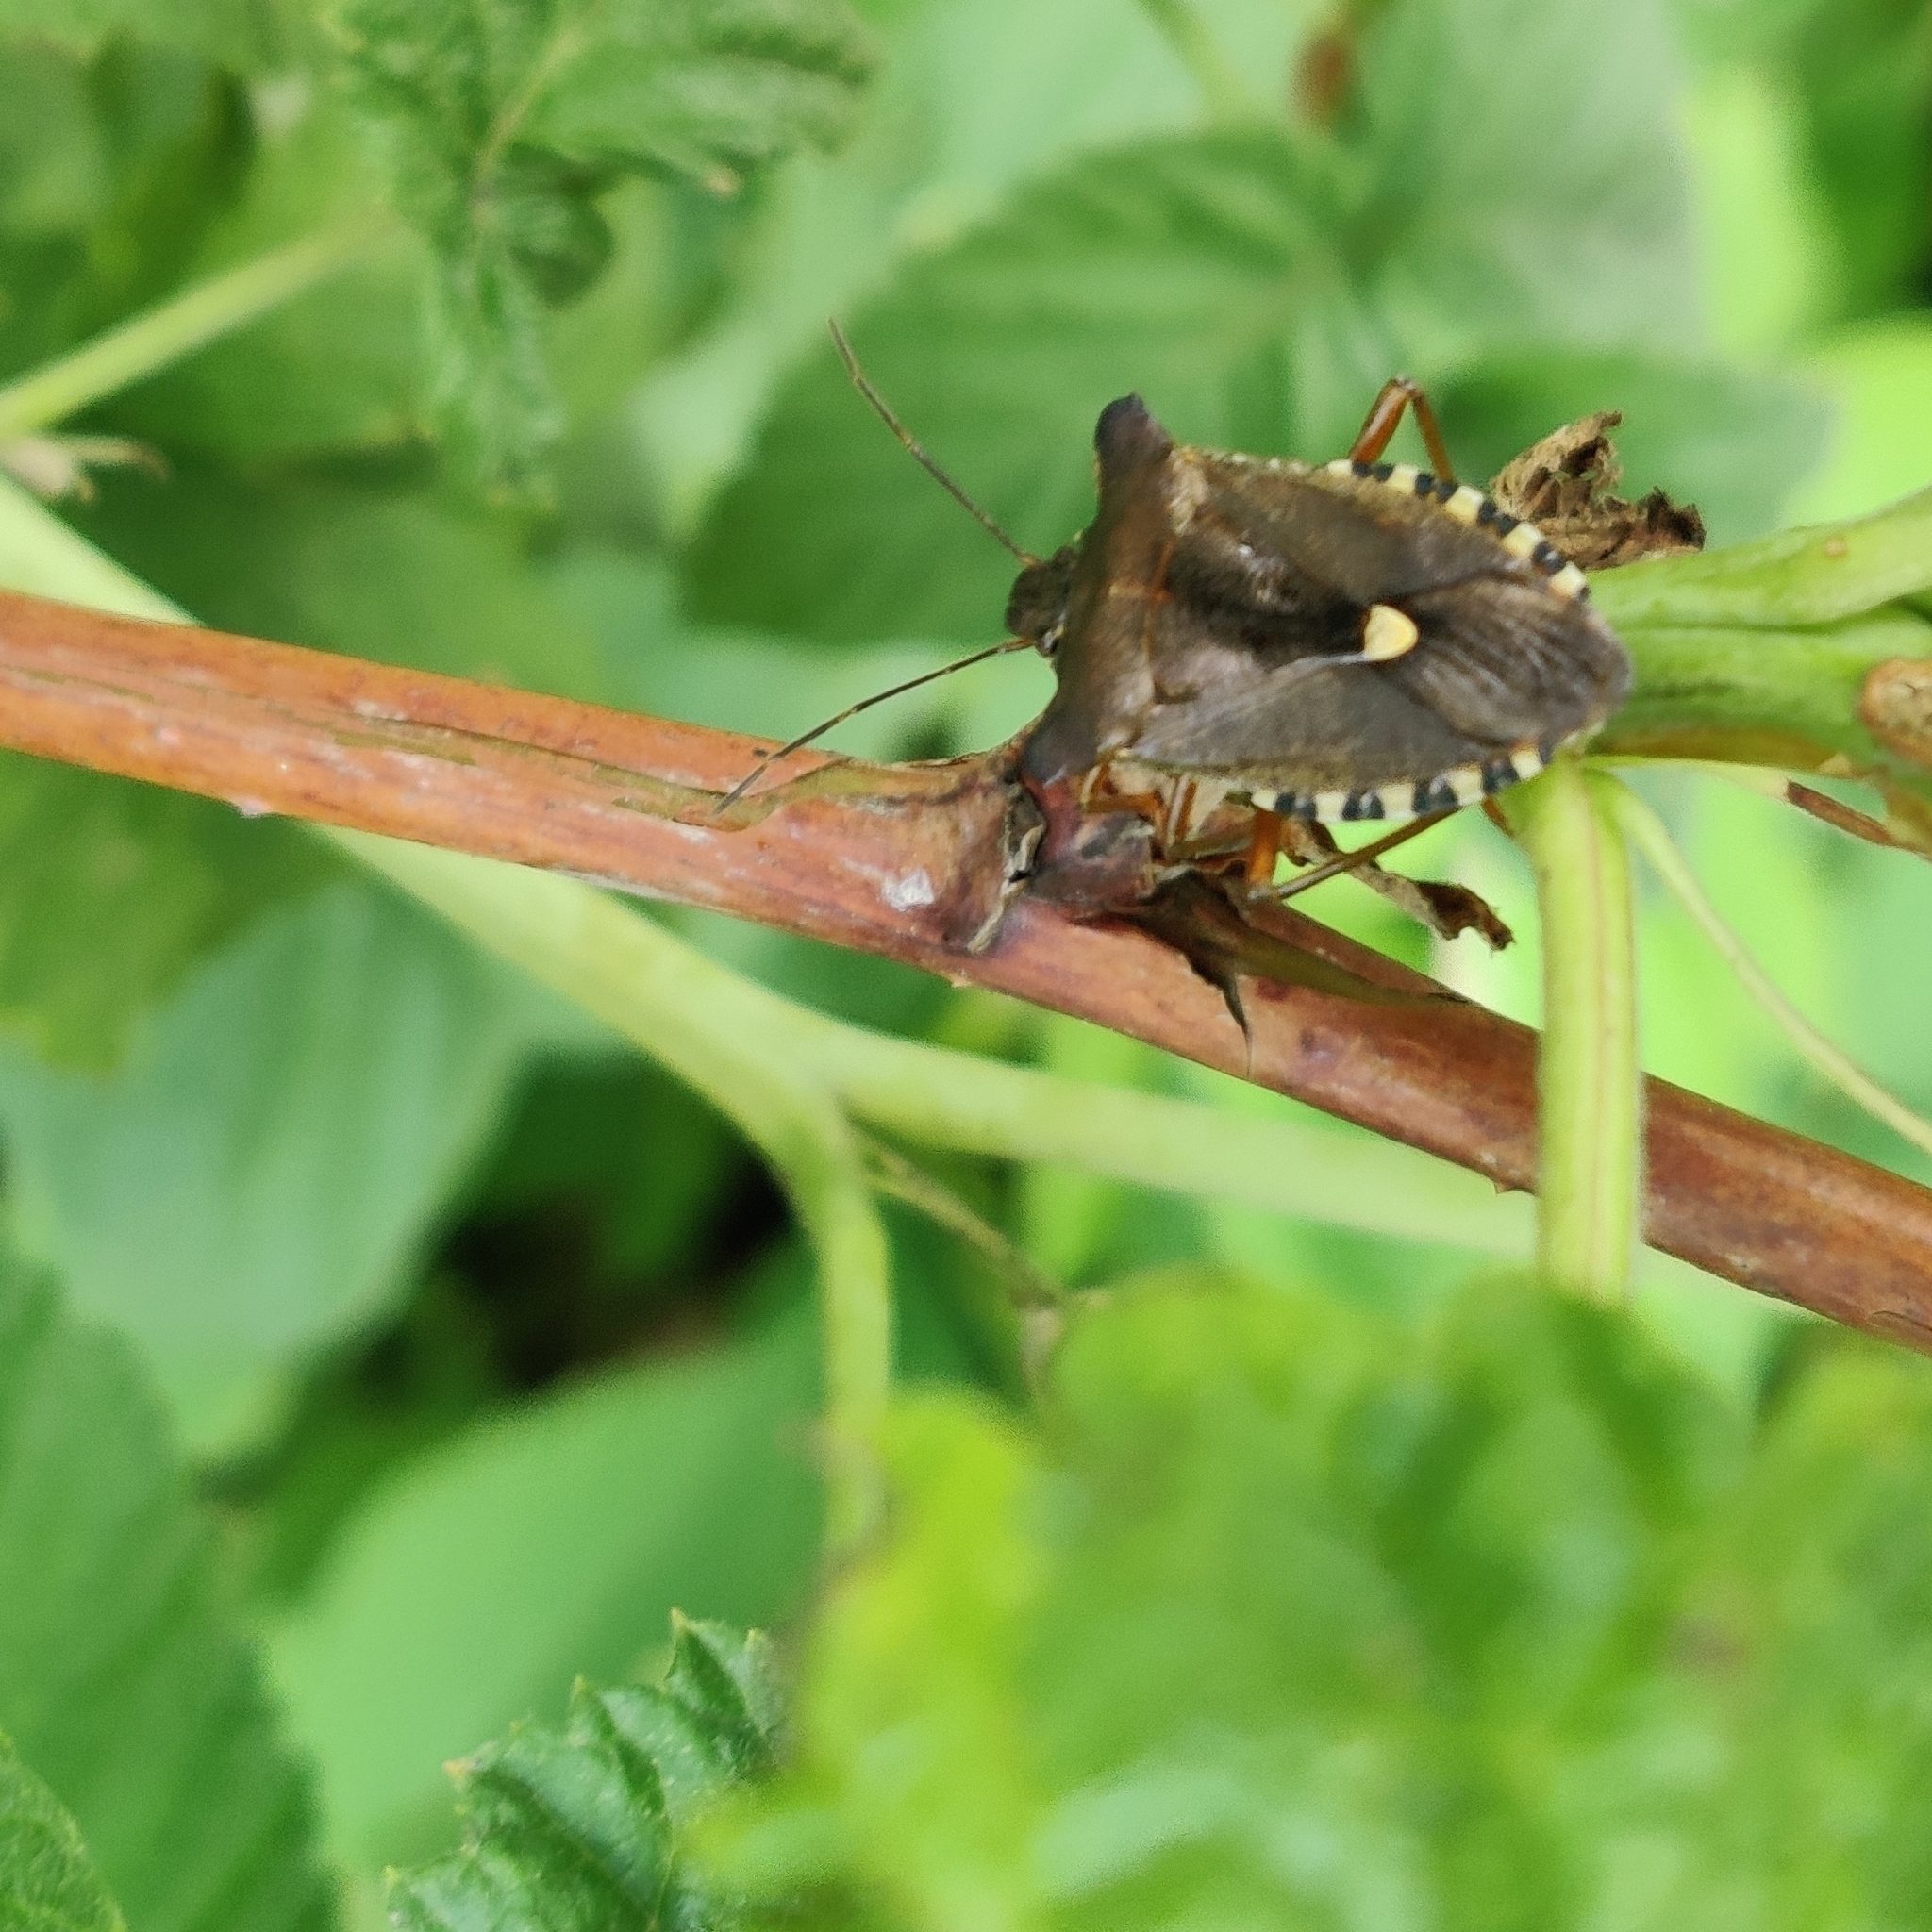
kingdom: Animalia
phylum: Arthropoda
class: Insecta
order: Hemiptera
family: Pentatomidae
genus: Pentatoma
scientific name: Pentatoma rufipes
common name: Forest bug
